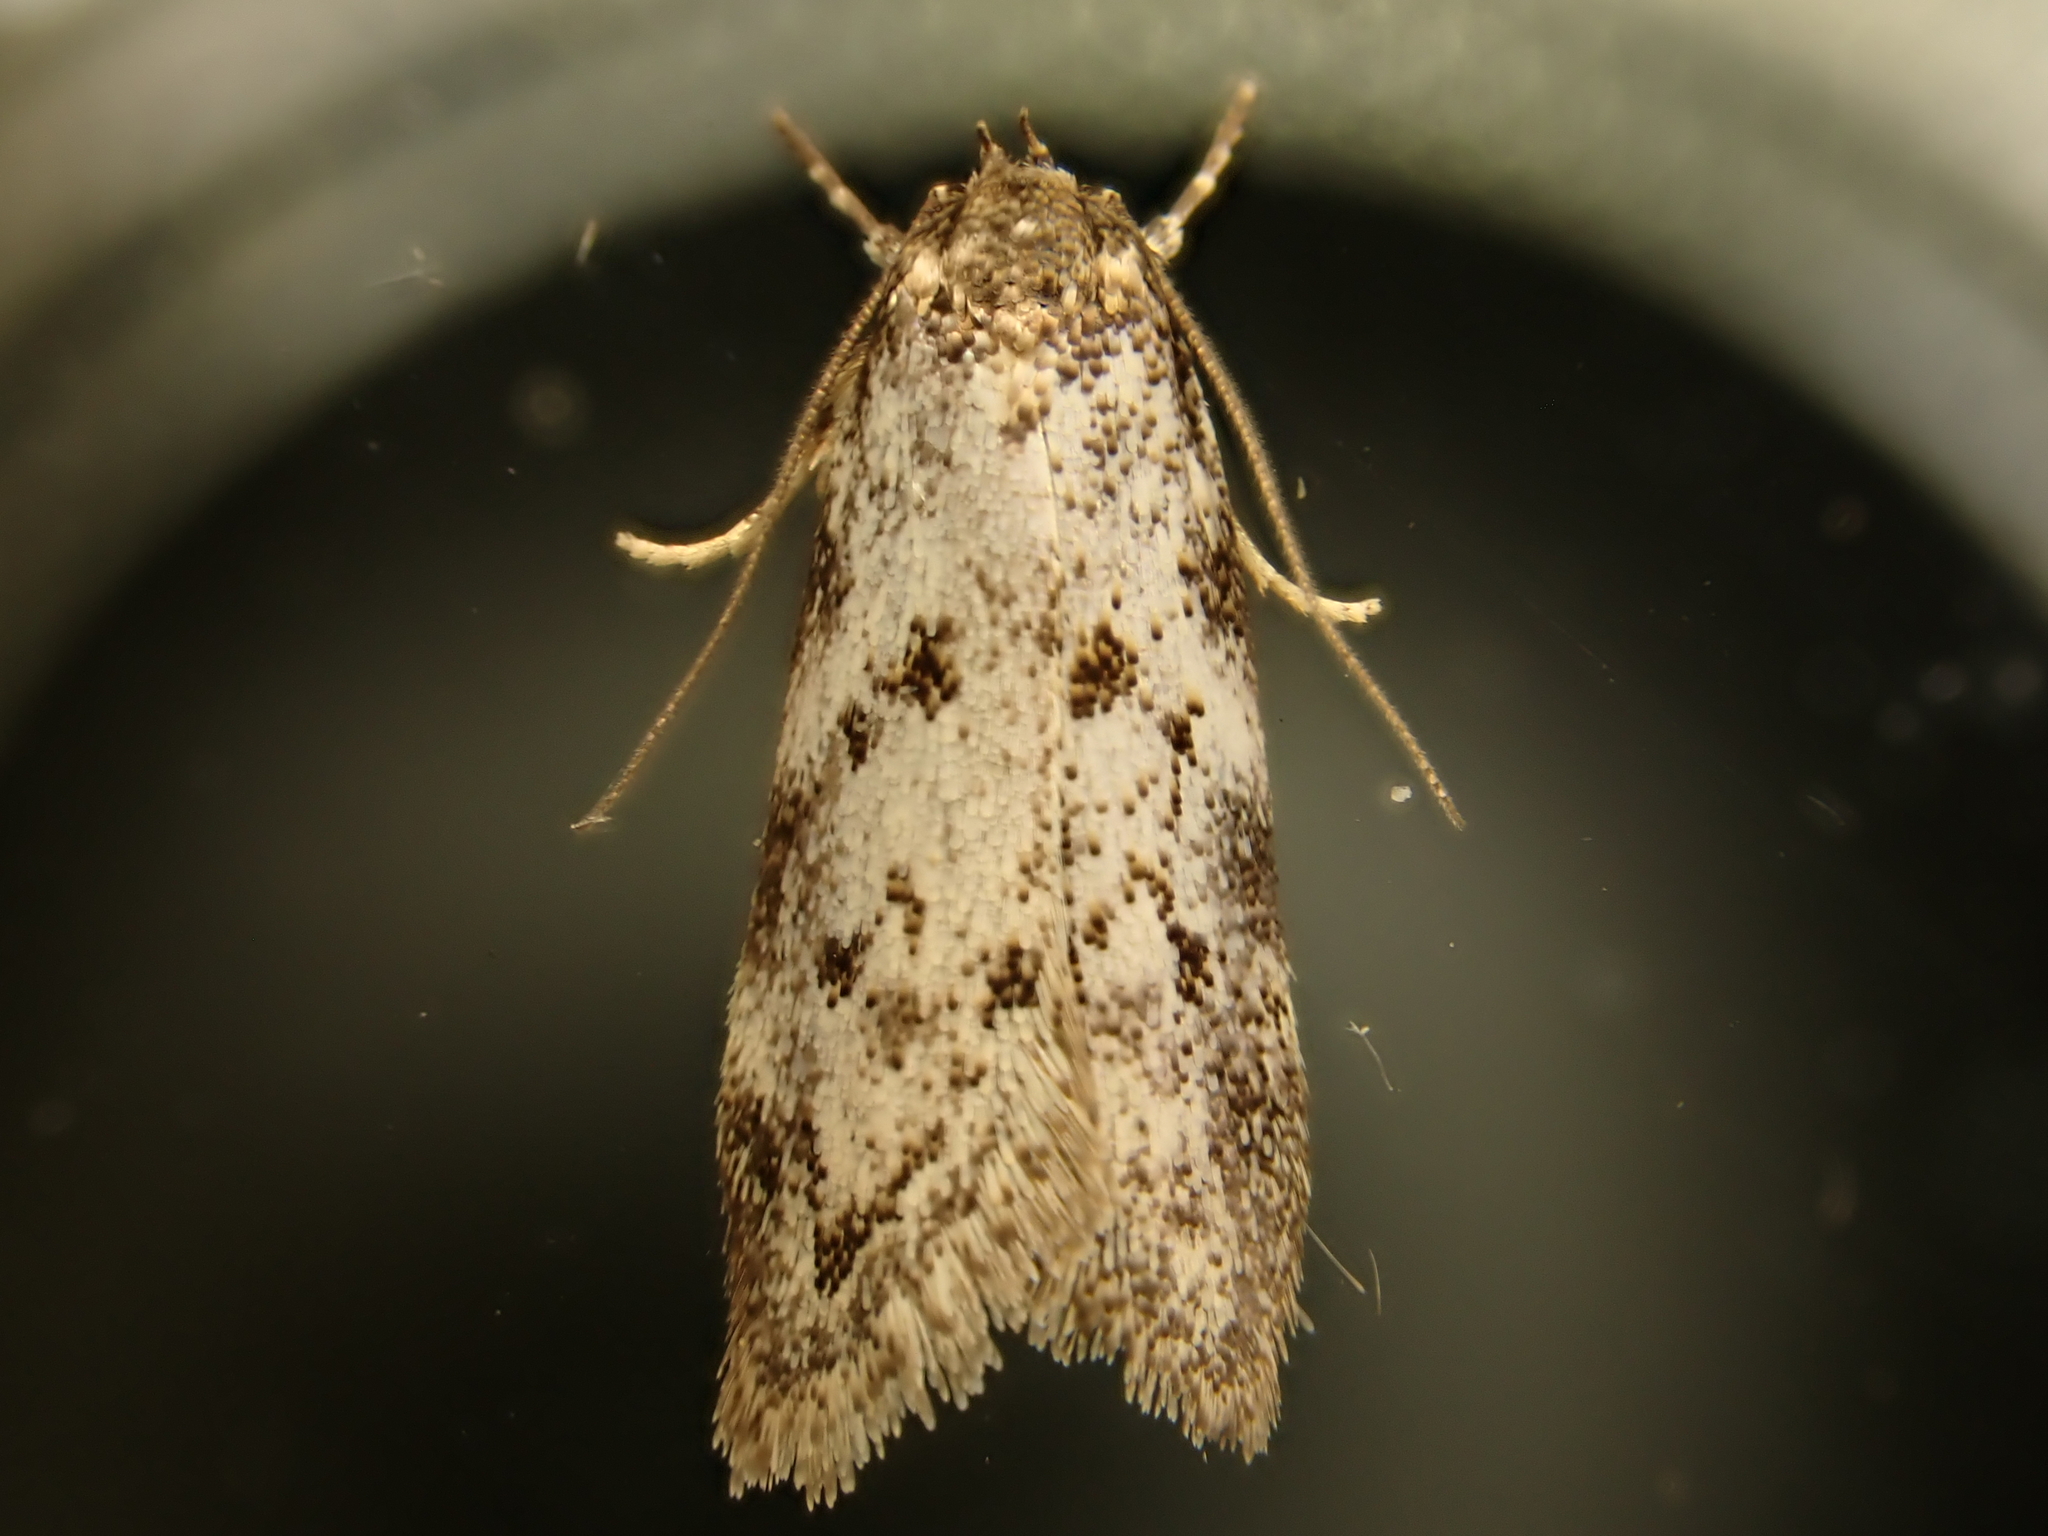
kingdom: Animalia
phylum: Arthropoda
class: Insecta
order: Lepidoptera
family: Oecophoridae
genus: Tingena
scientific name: Tingena clarkei
